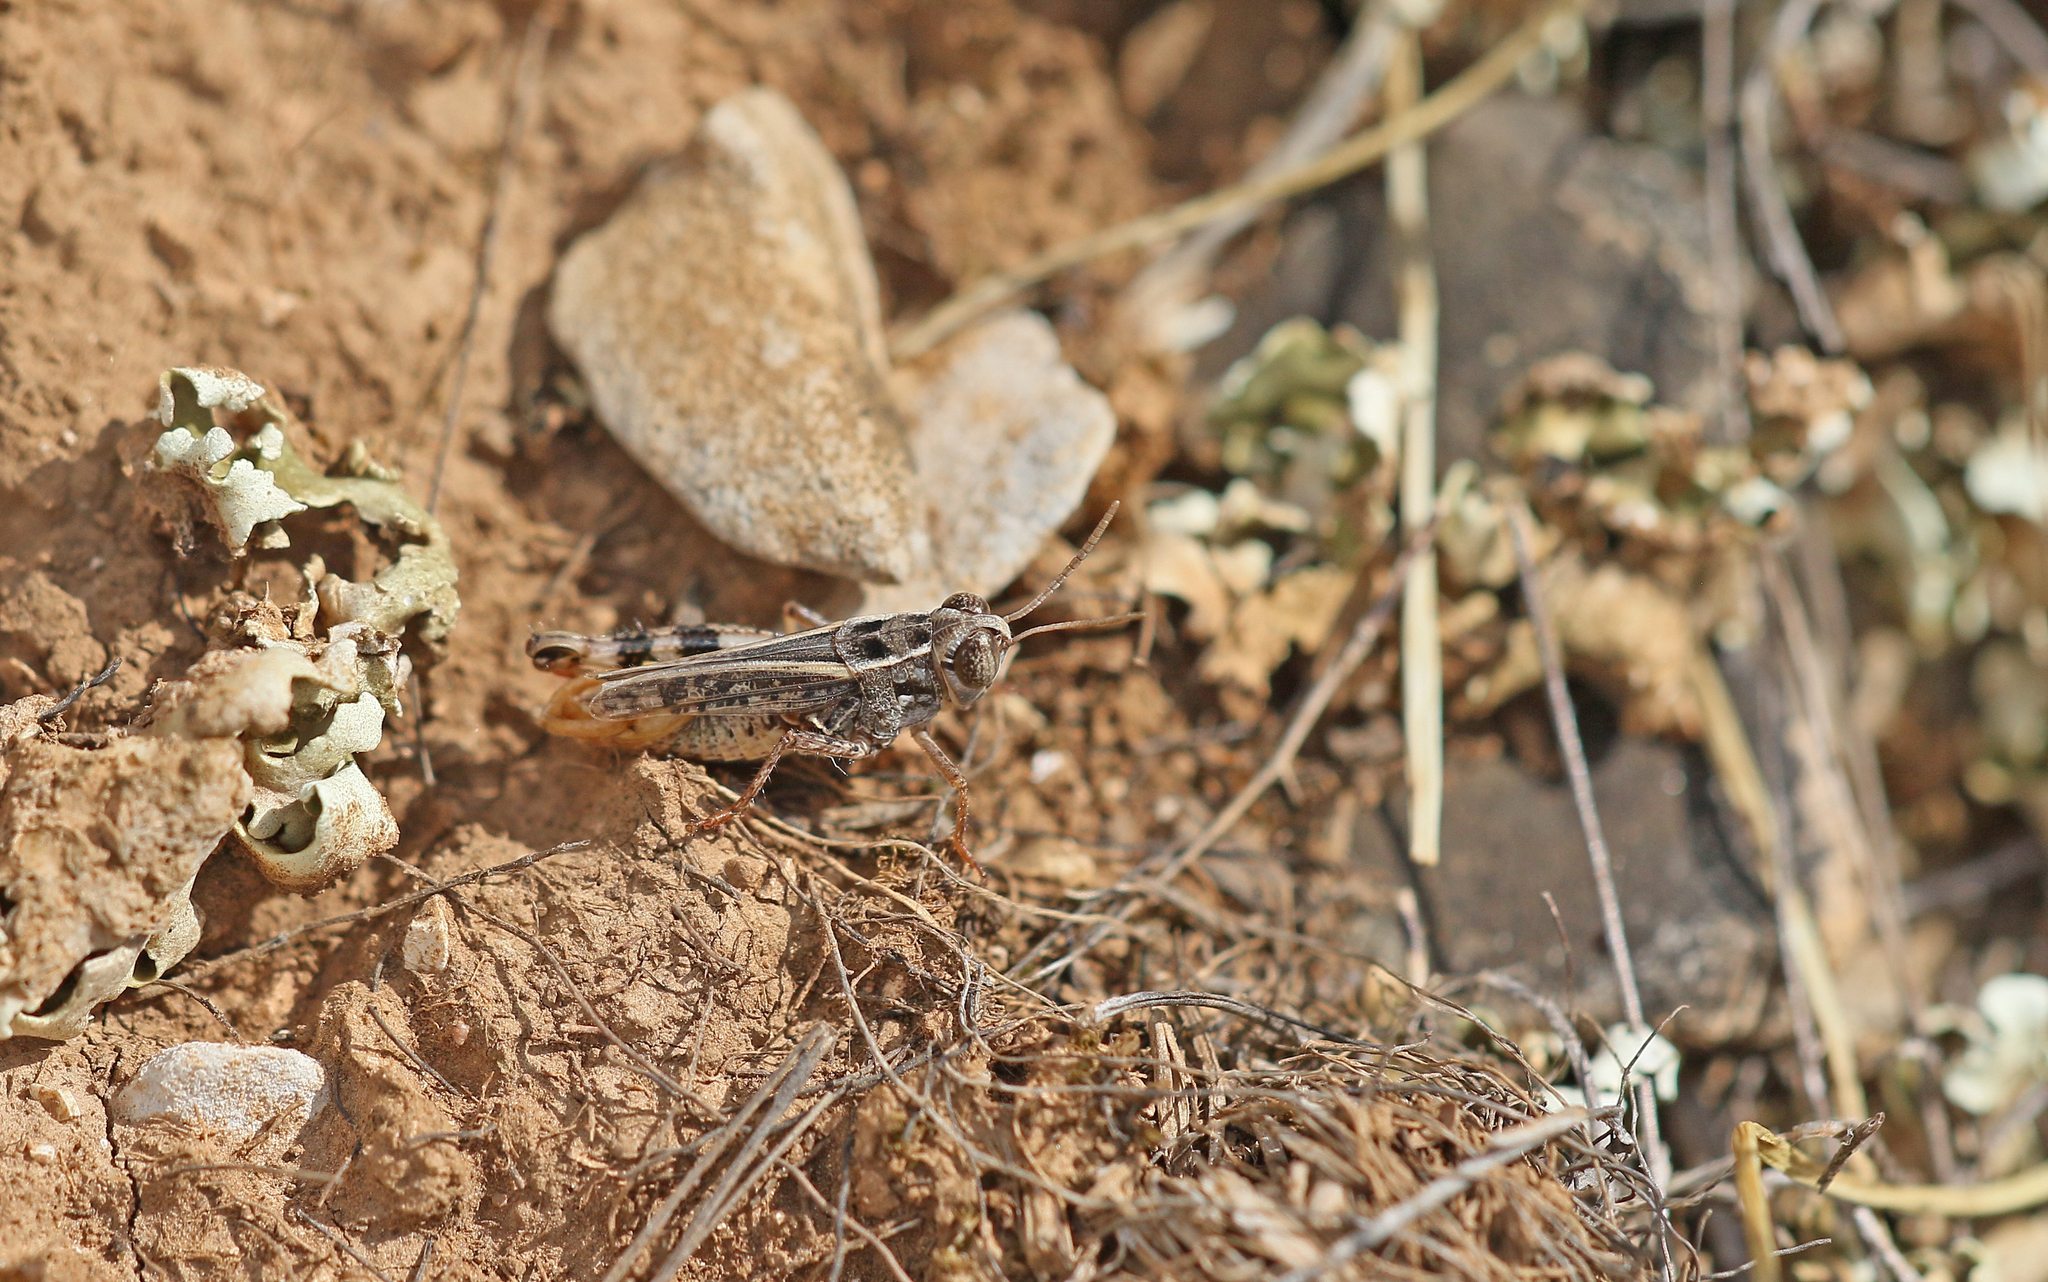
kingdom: Animalia
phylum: Arthropoda
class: Insecta
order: Orthoptera
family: Acrididae
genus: Calliptamus
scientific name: Calliptamus siciliae
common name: Pygmy pincer grasshopper
